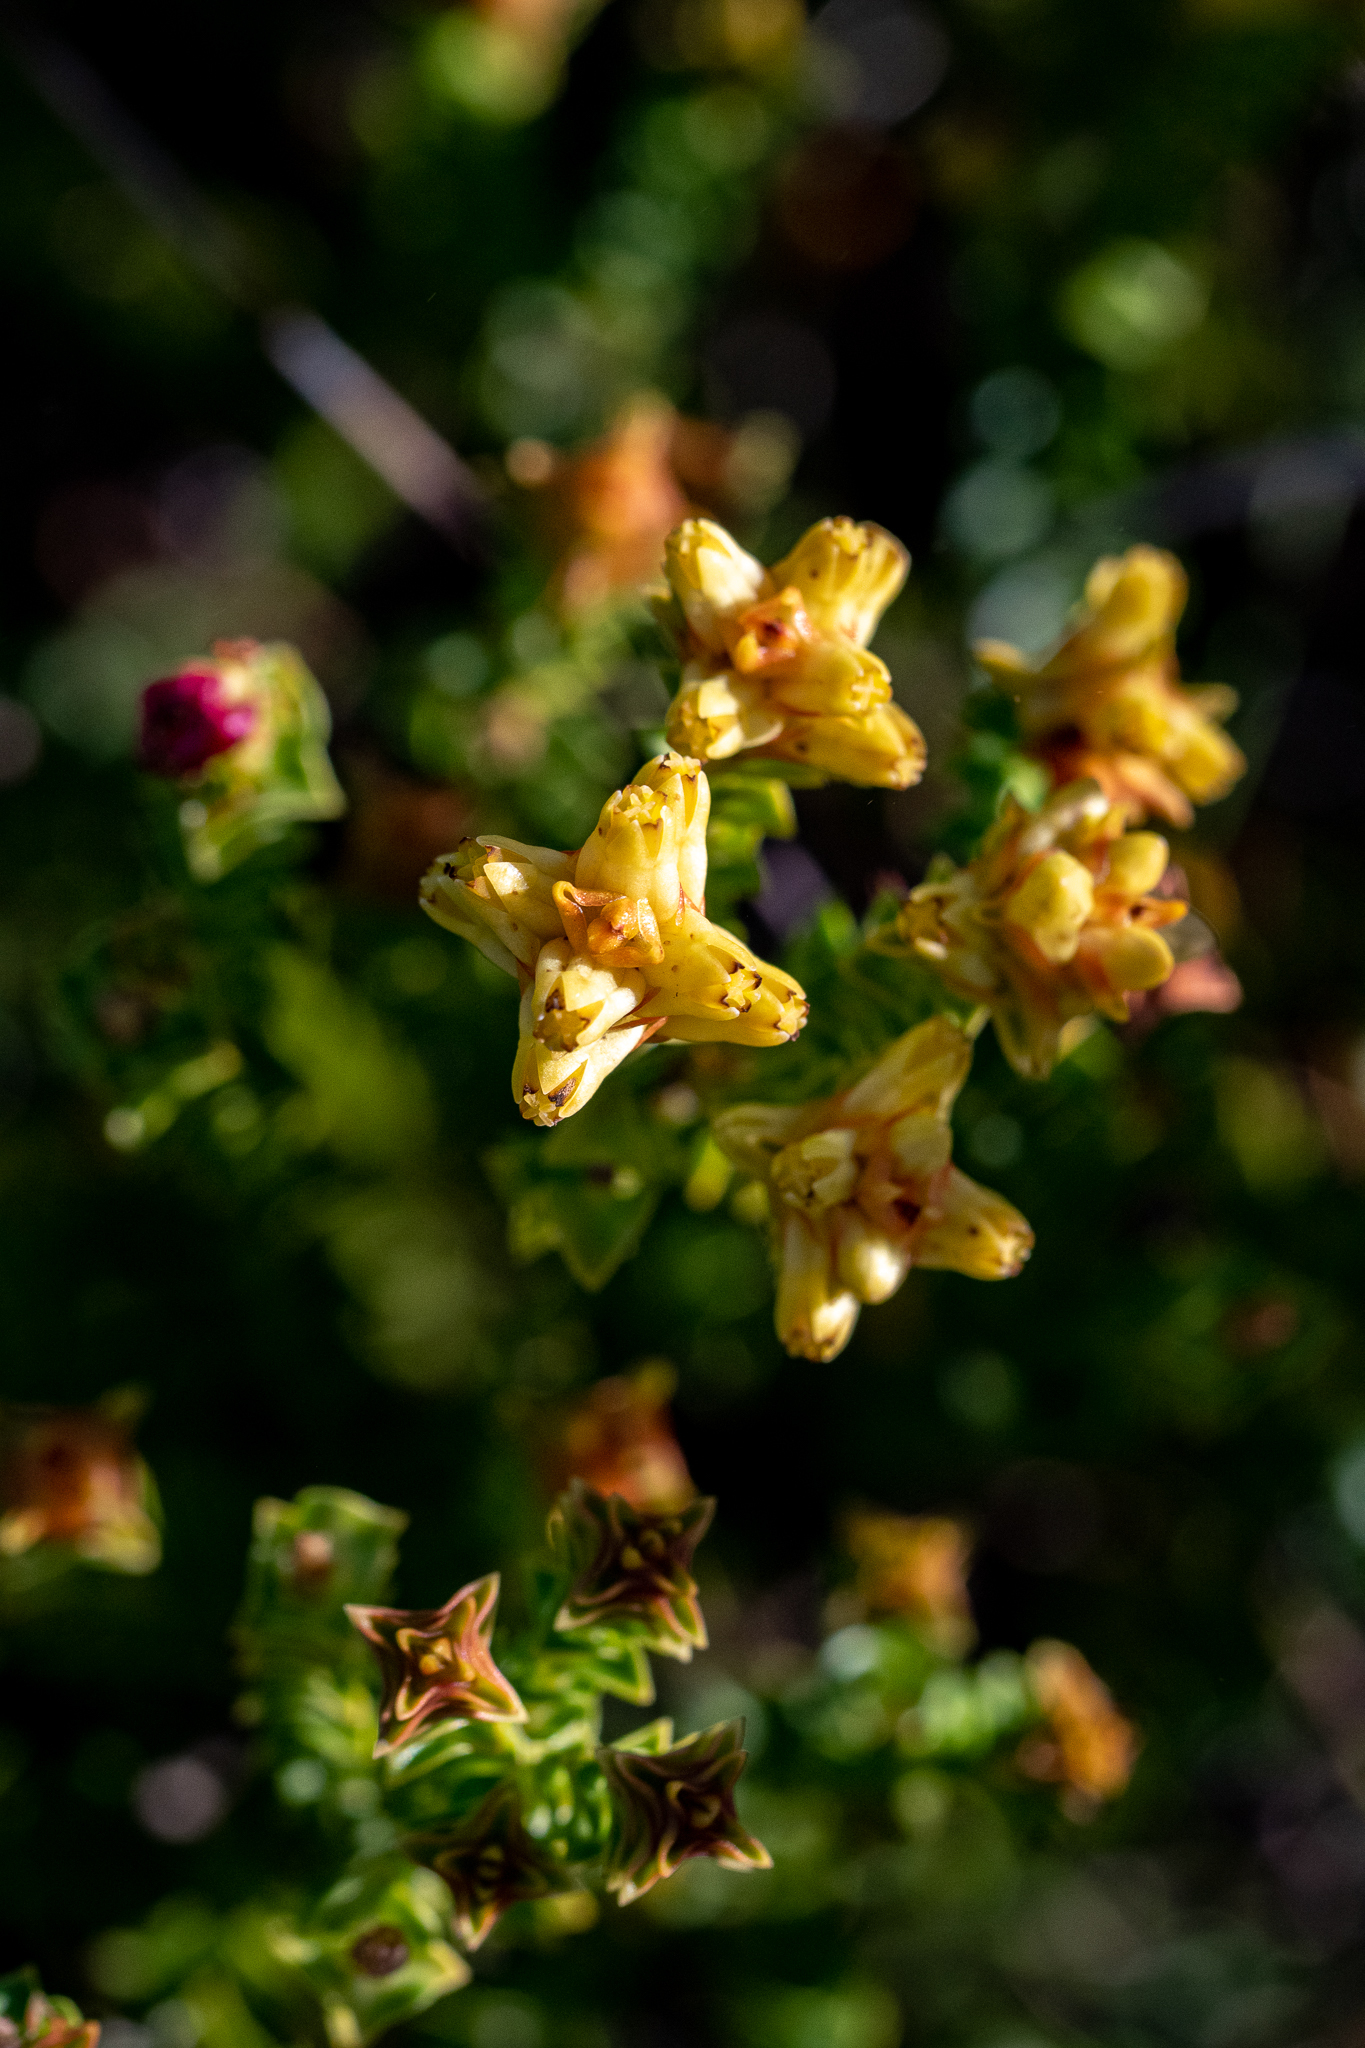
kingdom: Plantae
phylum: Tracheophyta
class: Magnoliopsida
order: Myrtales
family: Penaeaceae
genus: Penaea
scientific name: Penaea mucronata
